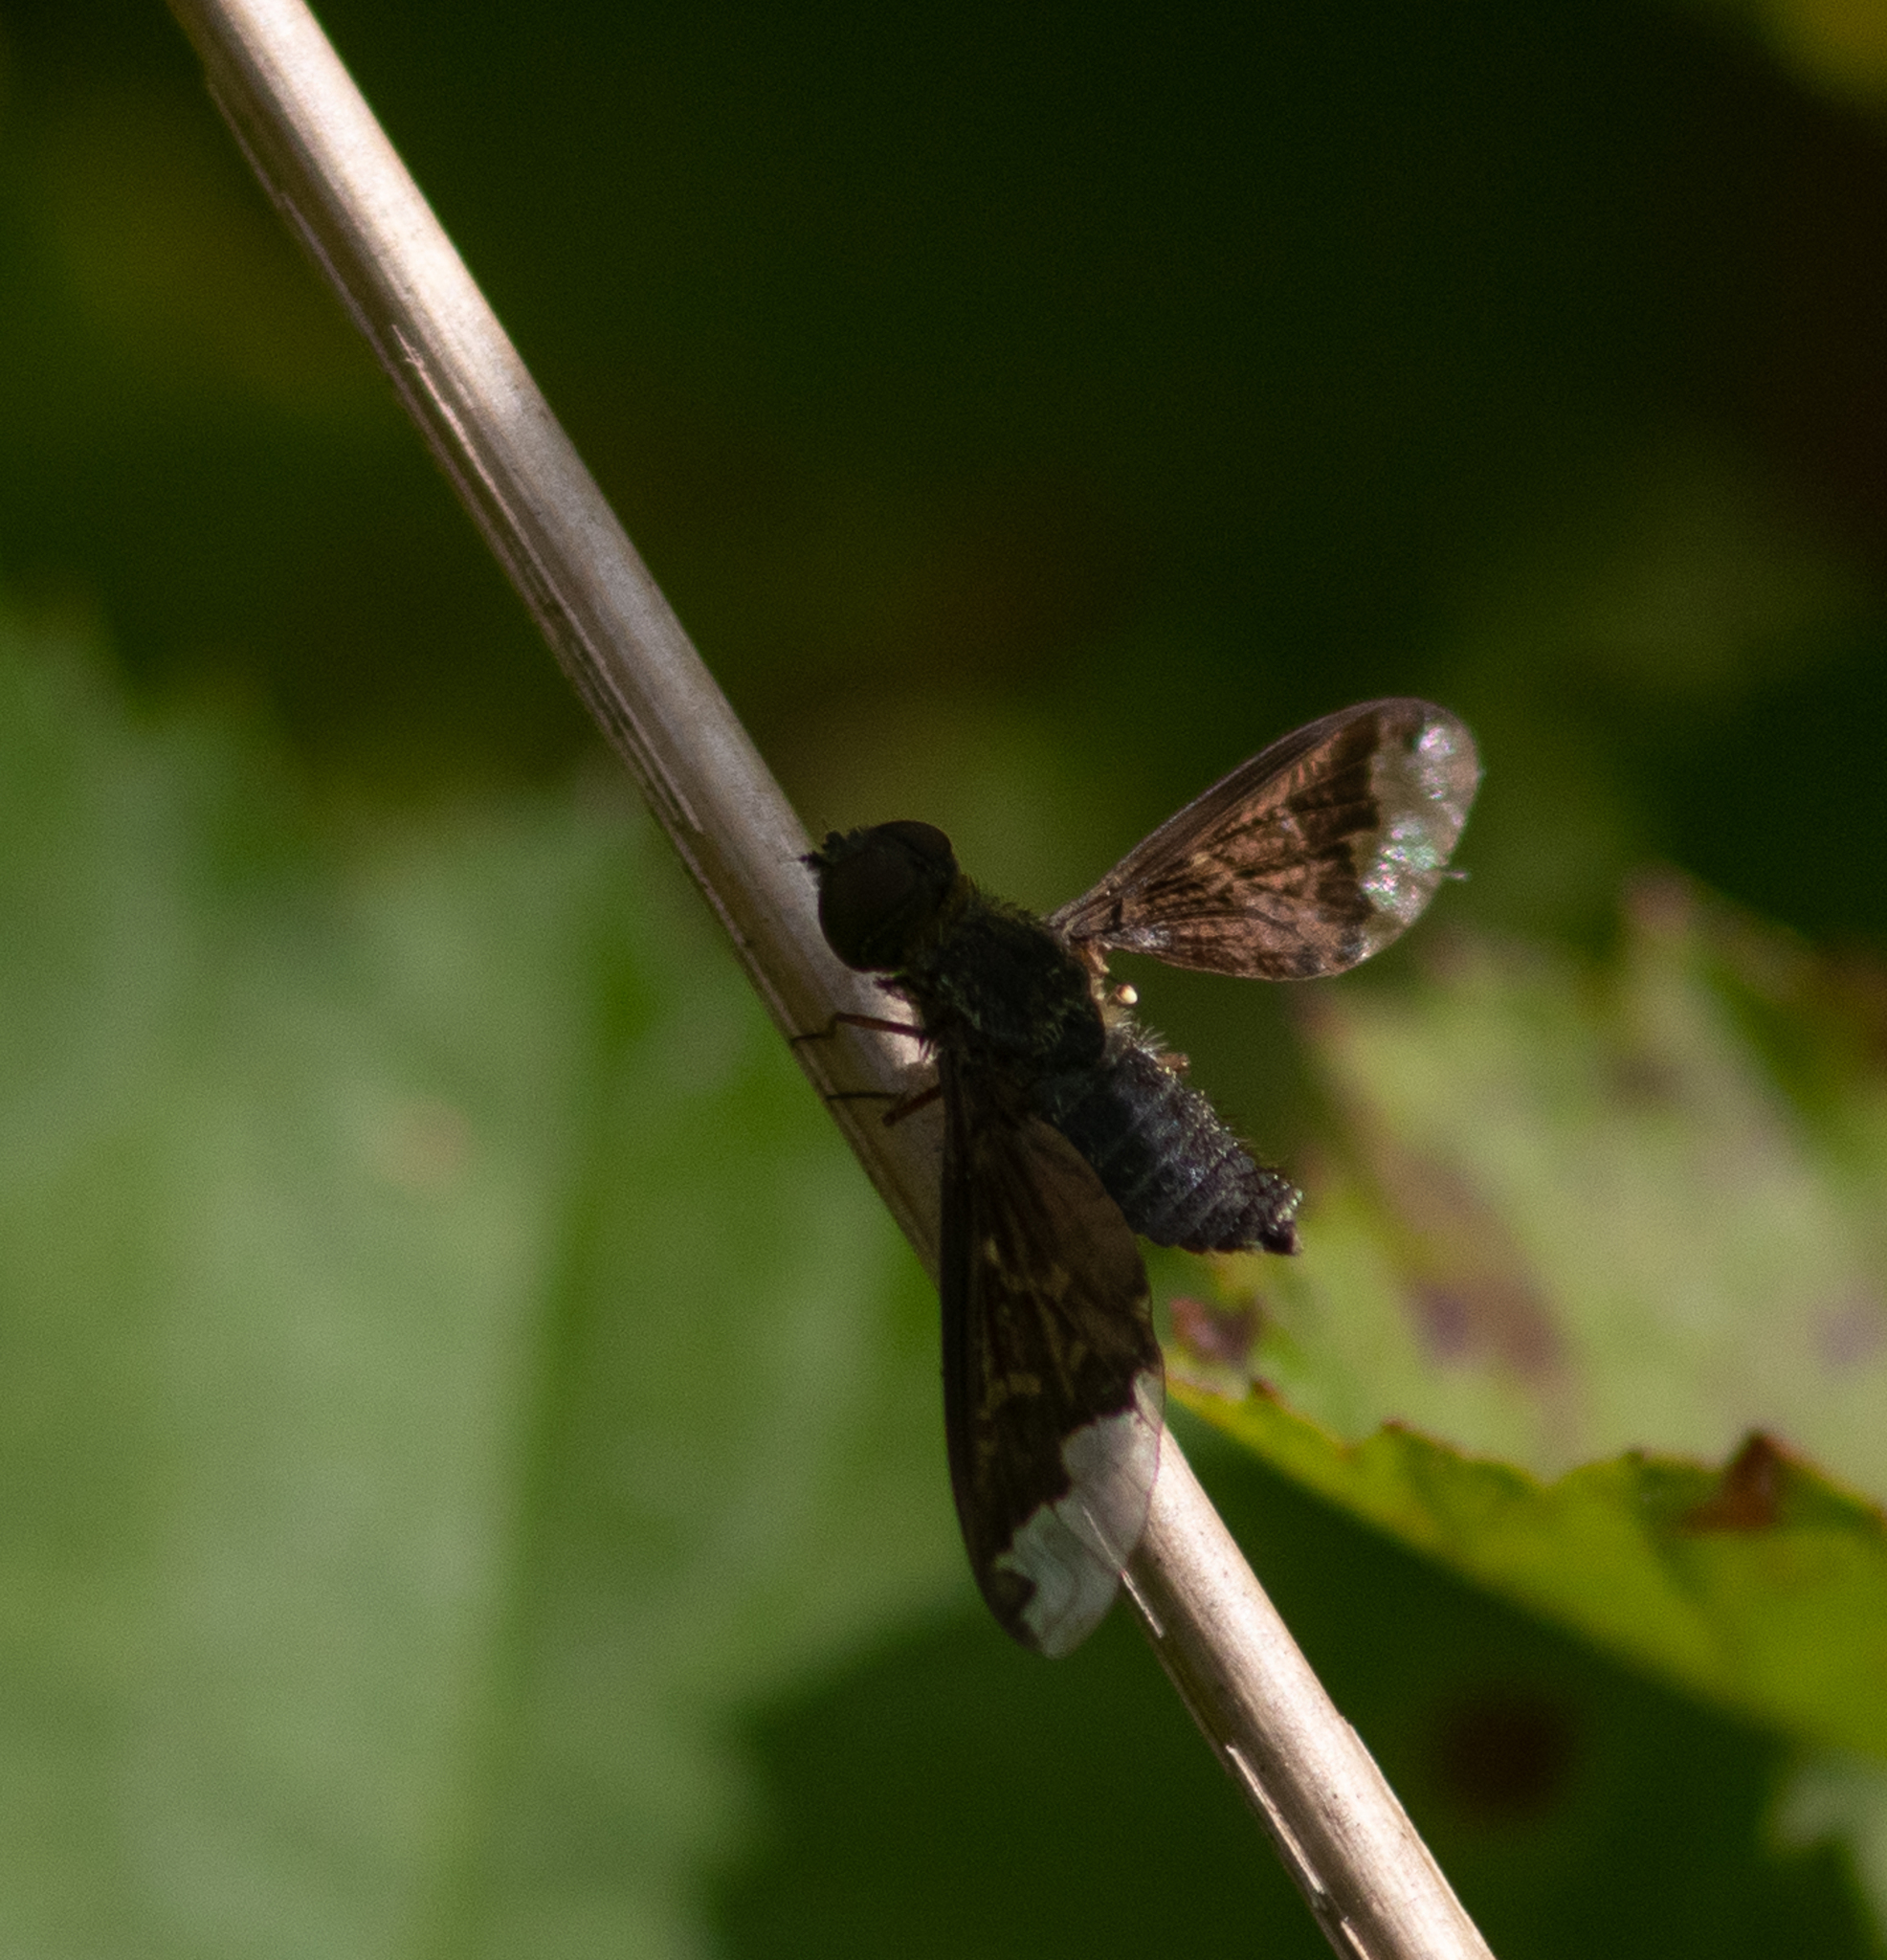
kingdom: Animalia
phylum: Arthropoda
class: Insecta
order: Diptera
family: Bombyliidae
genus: Hemipenthes
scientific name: Hemipenthes sinuosus
